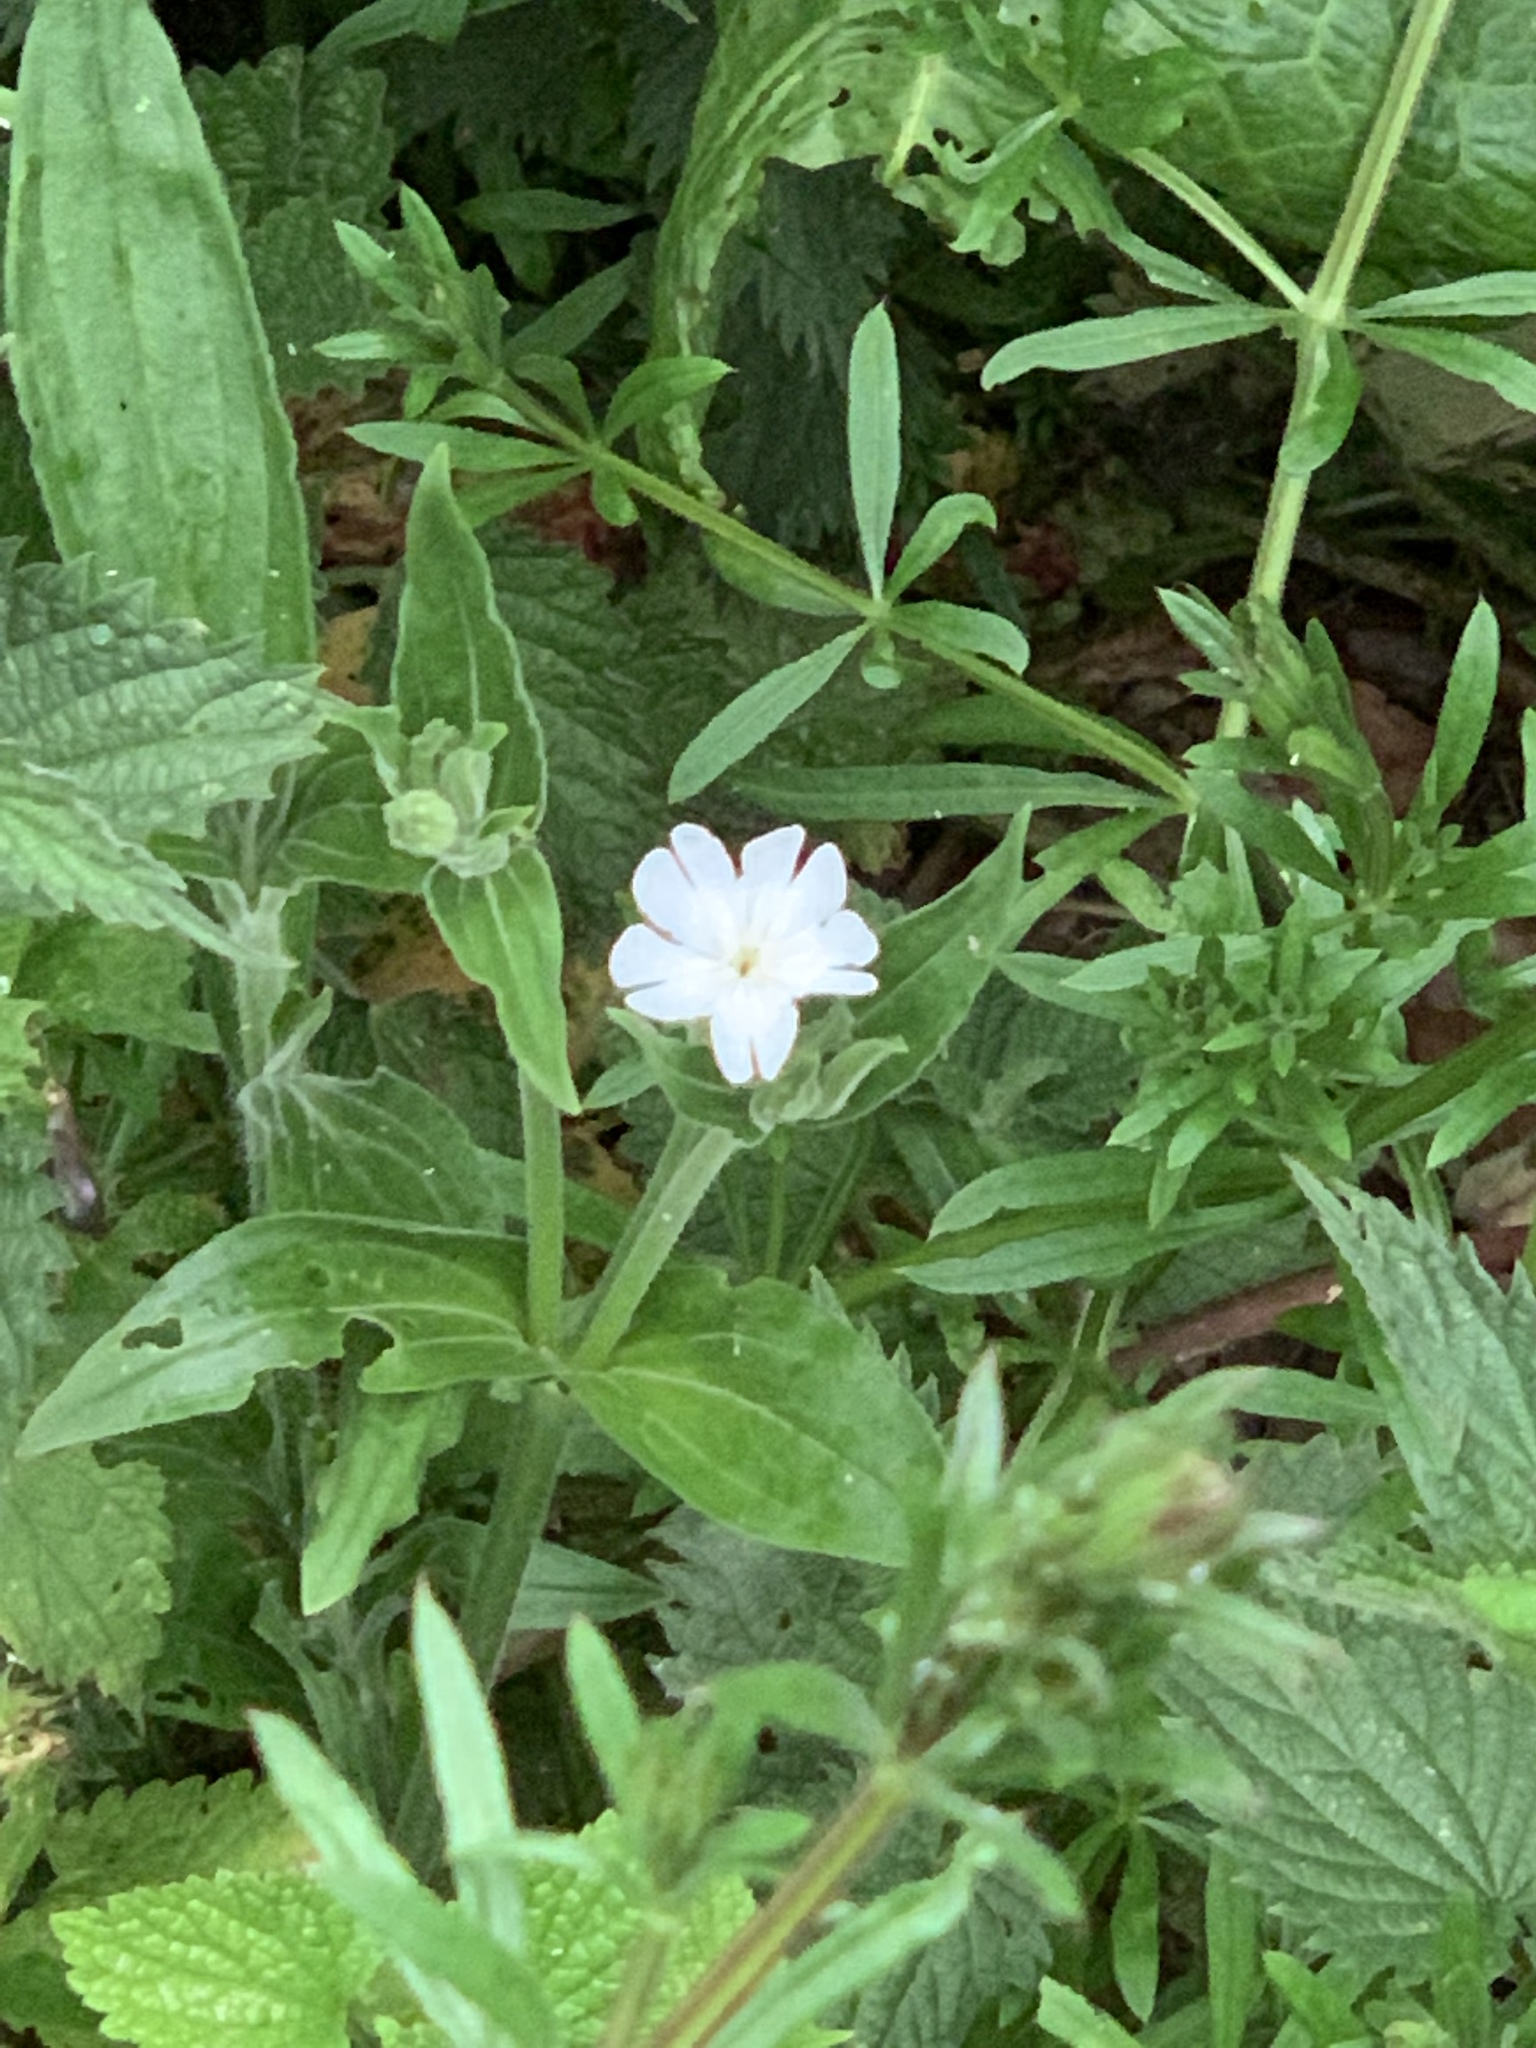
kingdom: Plantae
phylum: Tracheophyta
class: Magnoliopsida
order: Caryophyllales
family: Caryophyllaceae
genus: Silene
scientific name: Silene latifolia
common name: White campion
